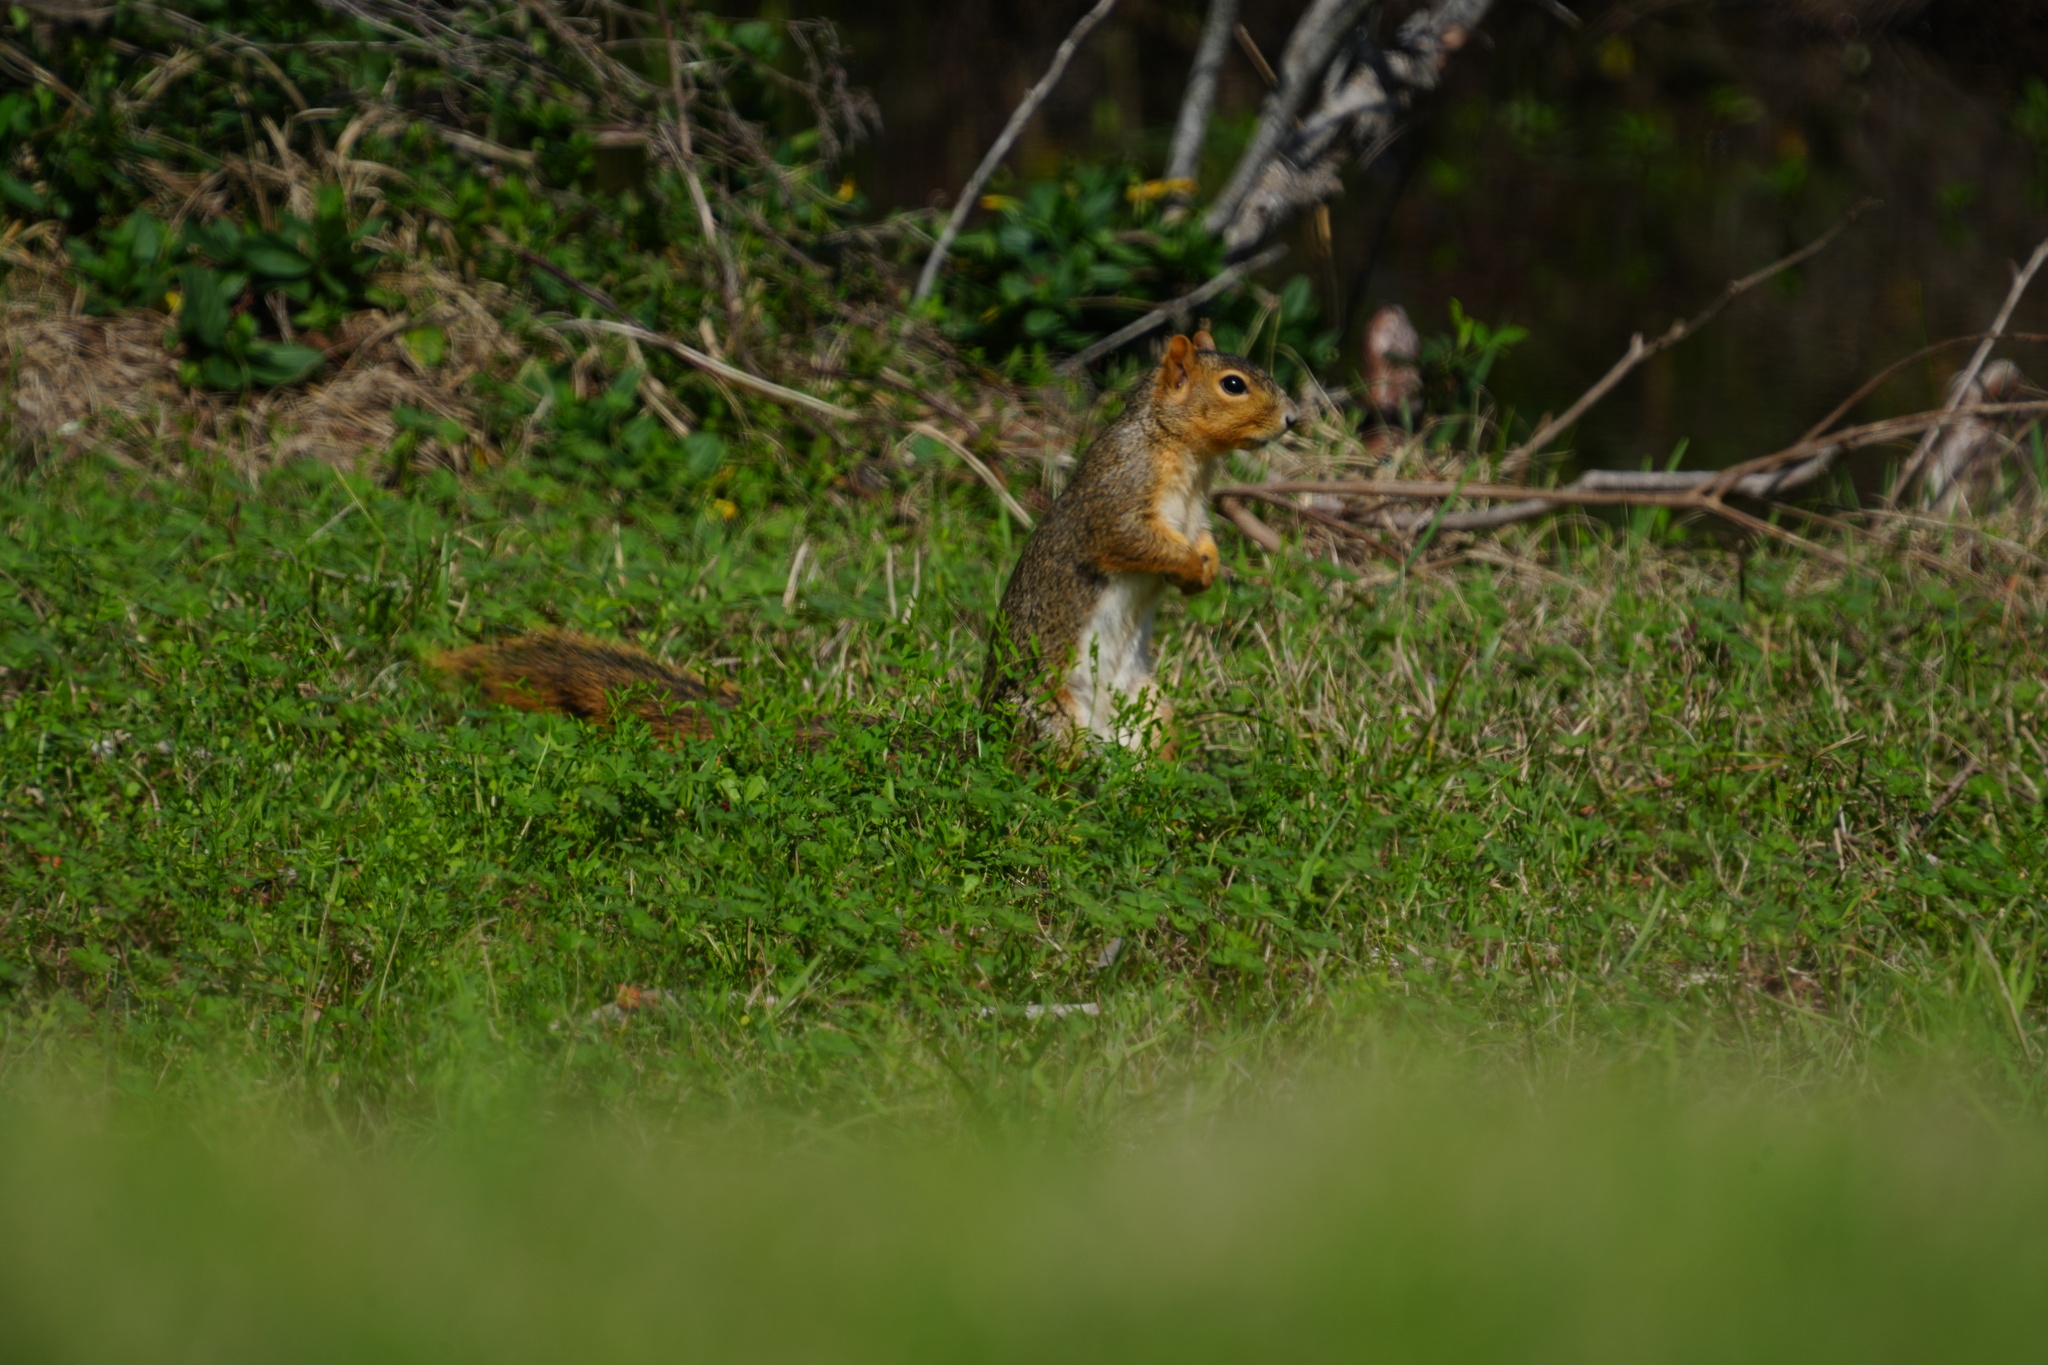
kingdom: Animalia
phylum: Chordata
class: Mammalia
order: Rodentia
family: Sciuridae
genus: Sciurus
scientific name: Sciurus niger
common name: Fox squirrel
